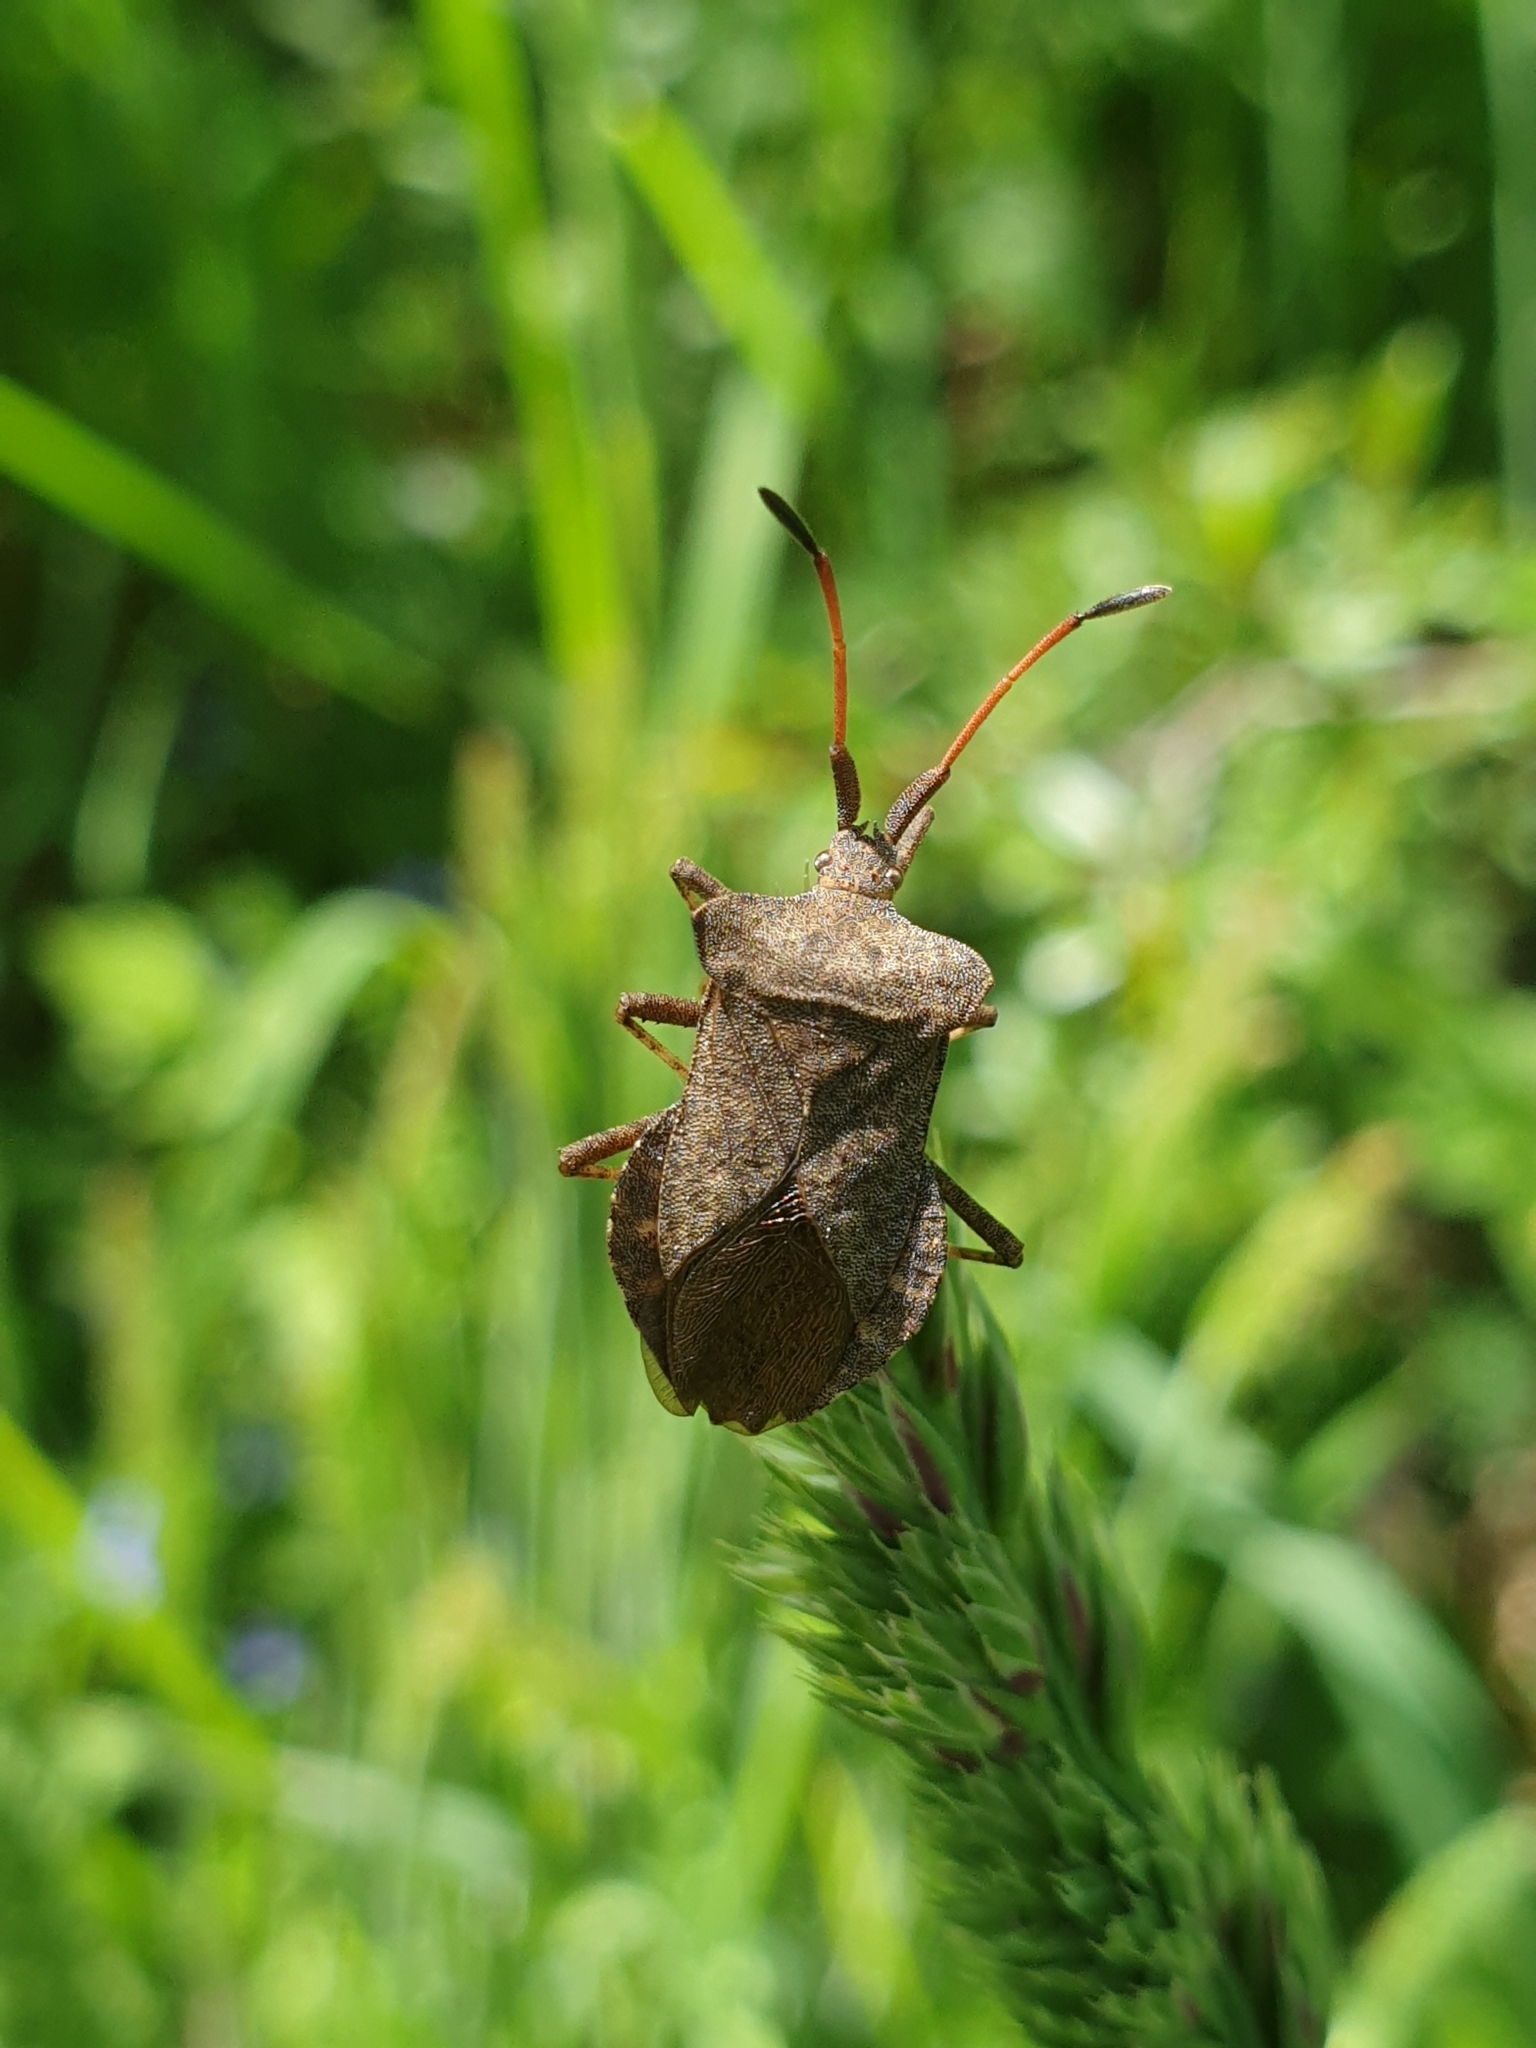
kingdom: Animalia
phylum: Arthropoda
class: Insecta
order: Hemiptera
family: Coreidae
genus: Coreus
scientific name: Coreus marginatus
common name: Dock bug
